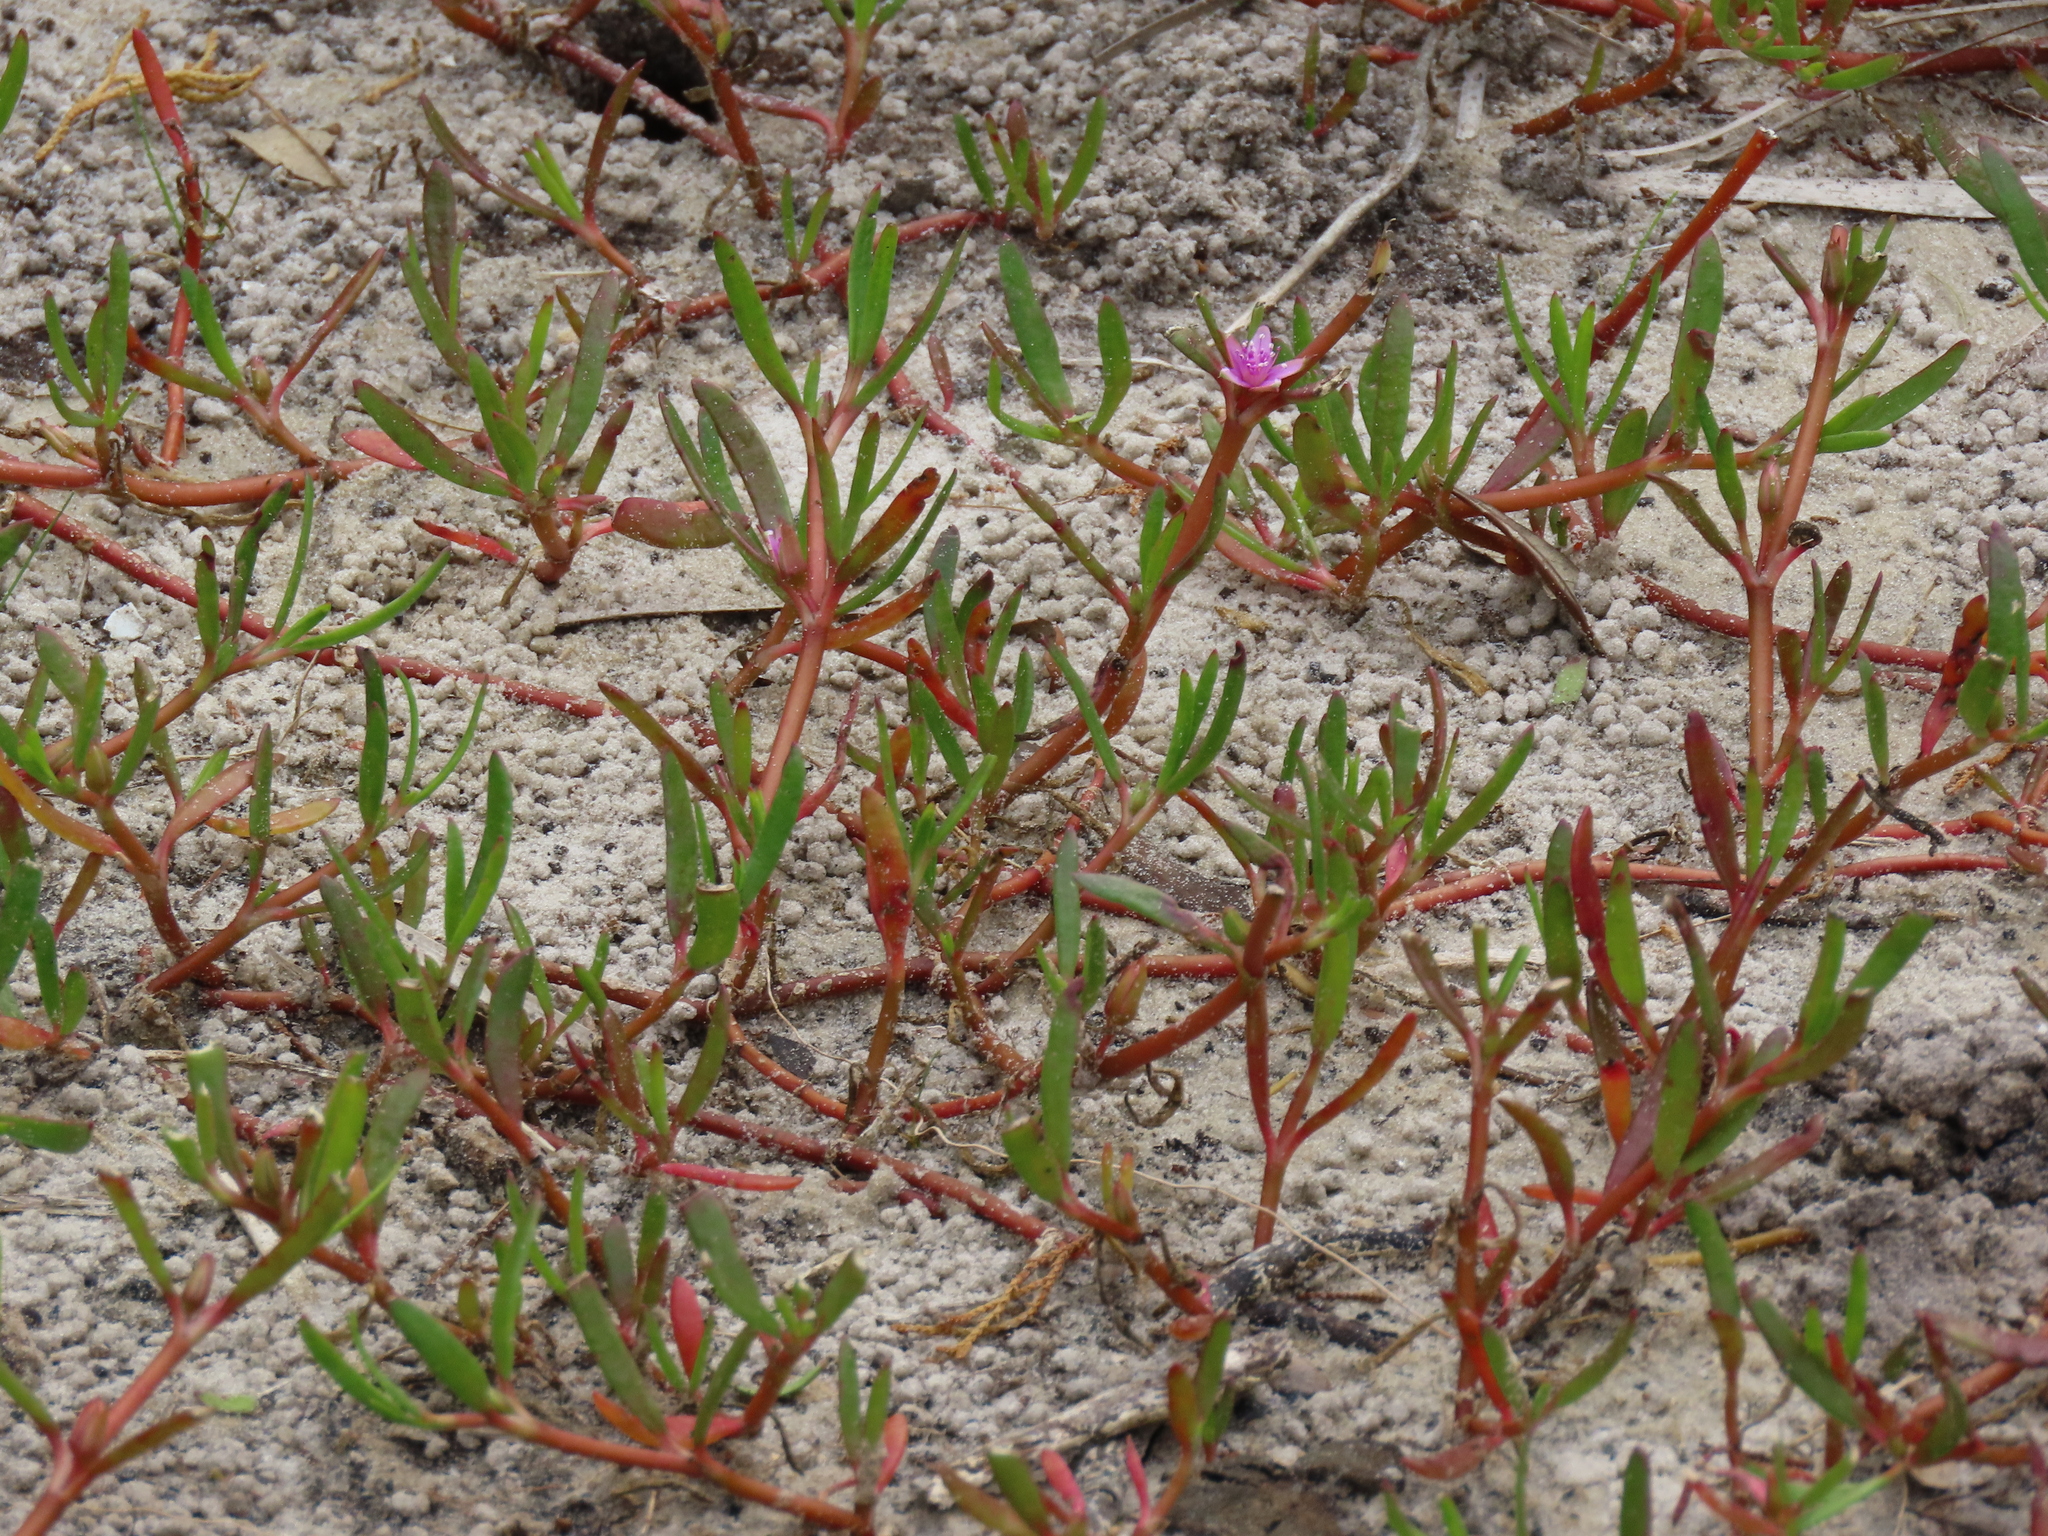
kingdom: Plantae
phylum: Tracheophyta
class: Magnoliopsida
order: Caryophyllales
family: Aizoaceae
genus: Sesuvium
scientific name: Sesuvium portulacastrum
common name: Sea-purslane
